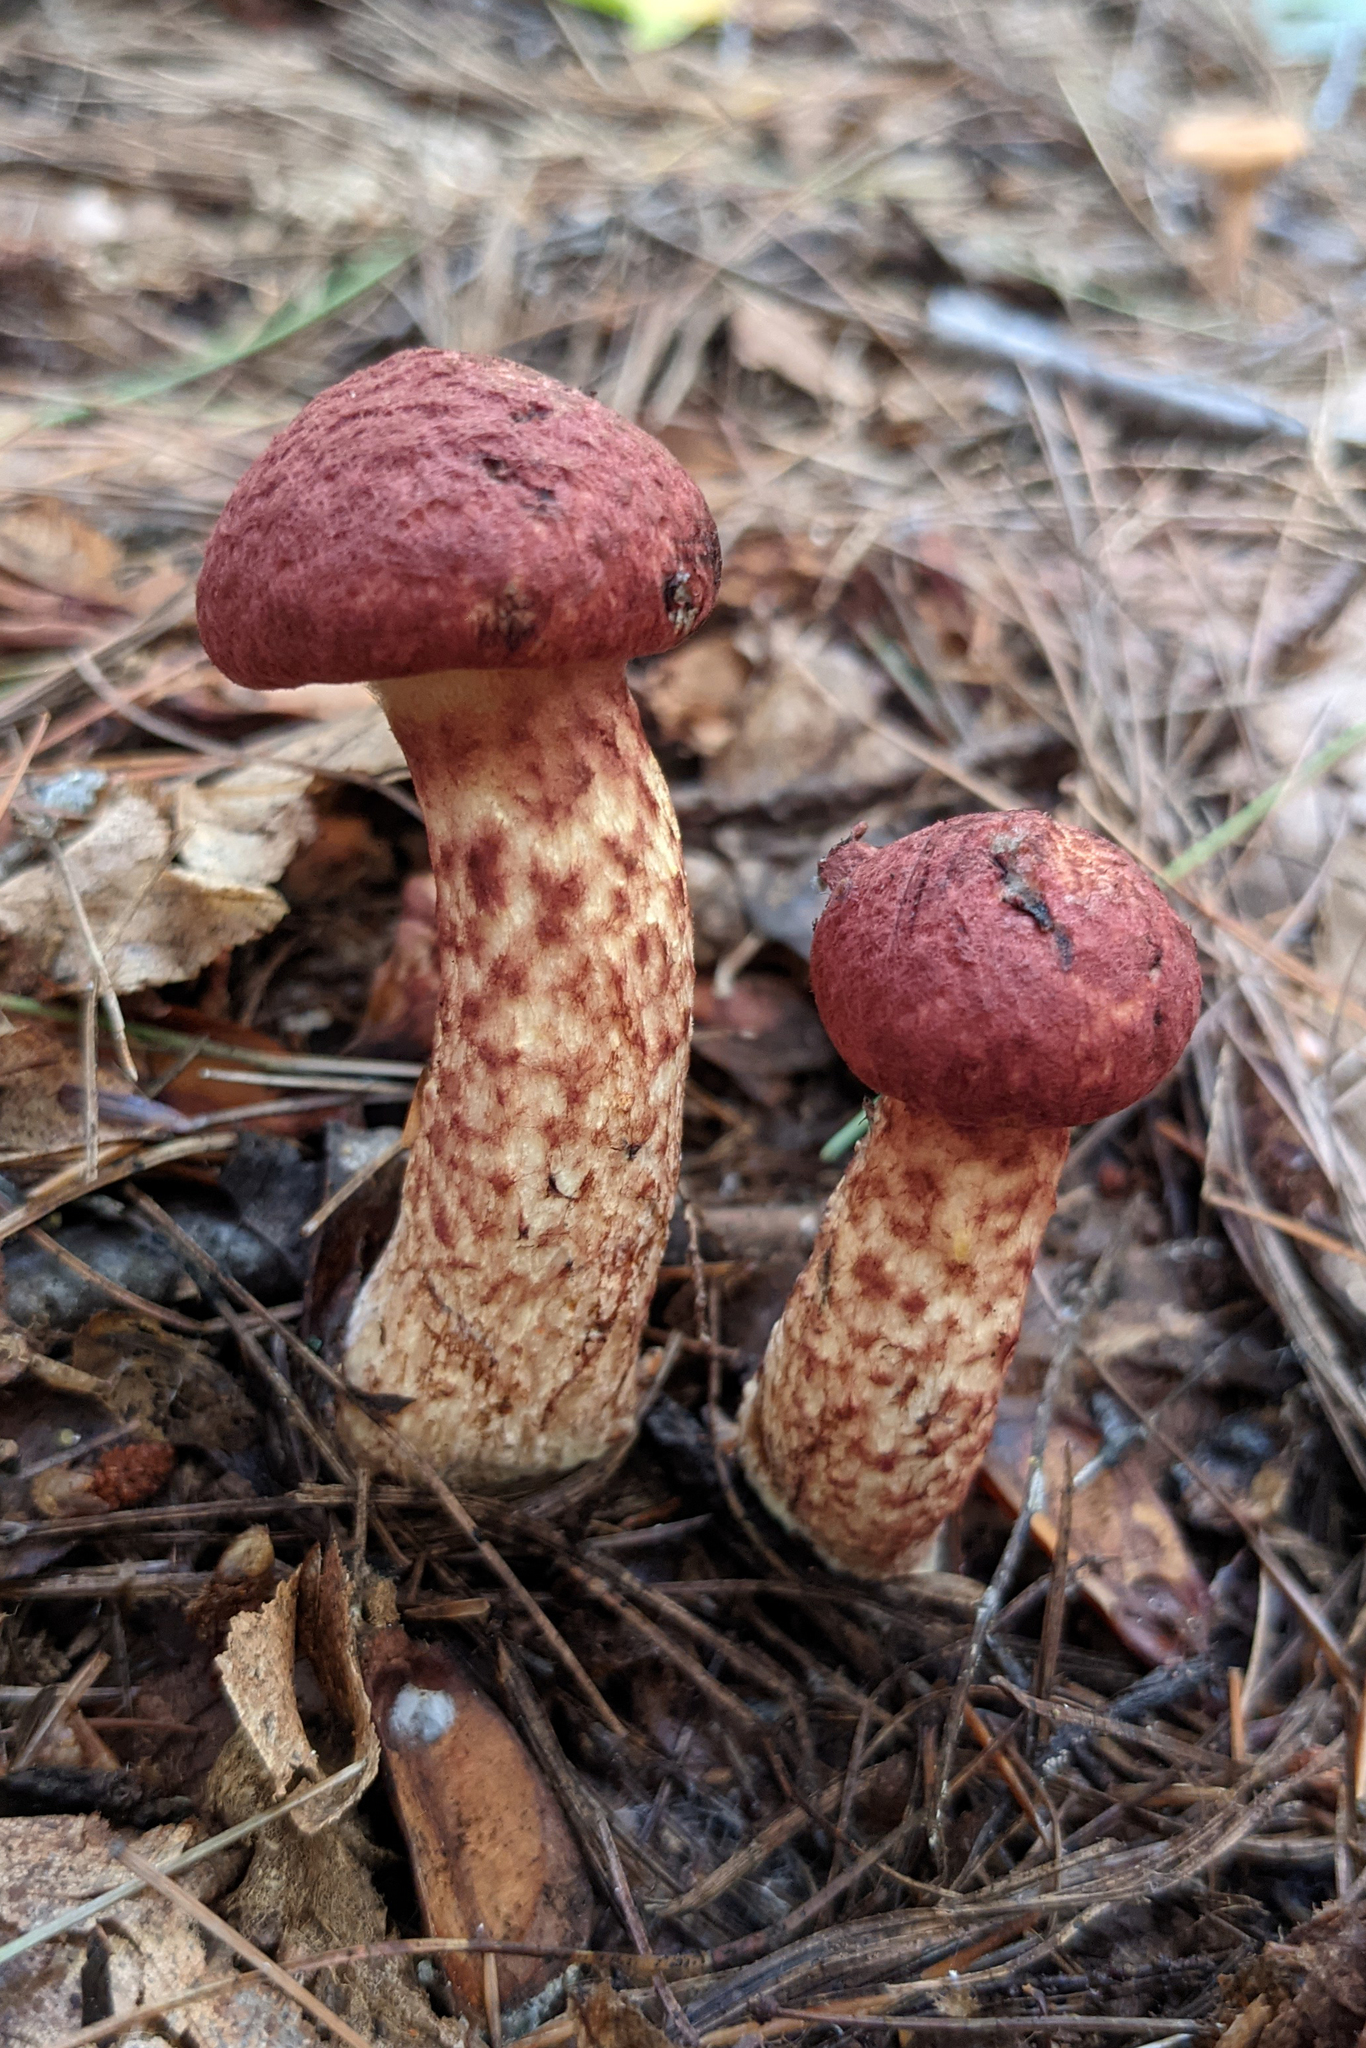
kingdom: Fungi
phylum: Basidiomycota
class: Agaricomycetes
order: Boletales
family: Suillaceae
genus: Suillus
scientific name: Suillus spraguei
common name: Painted suillus
